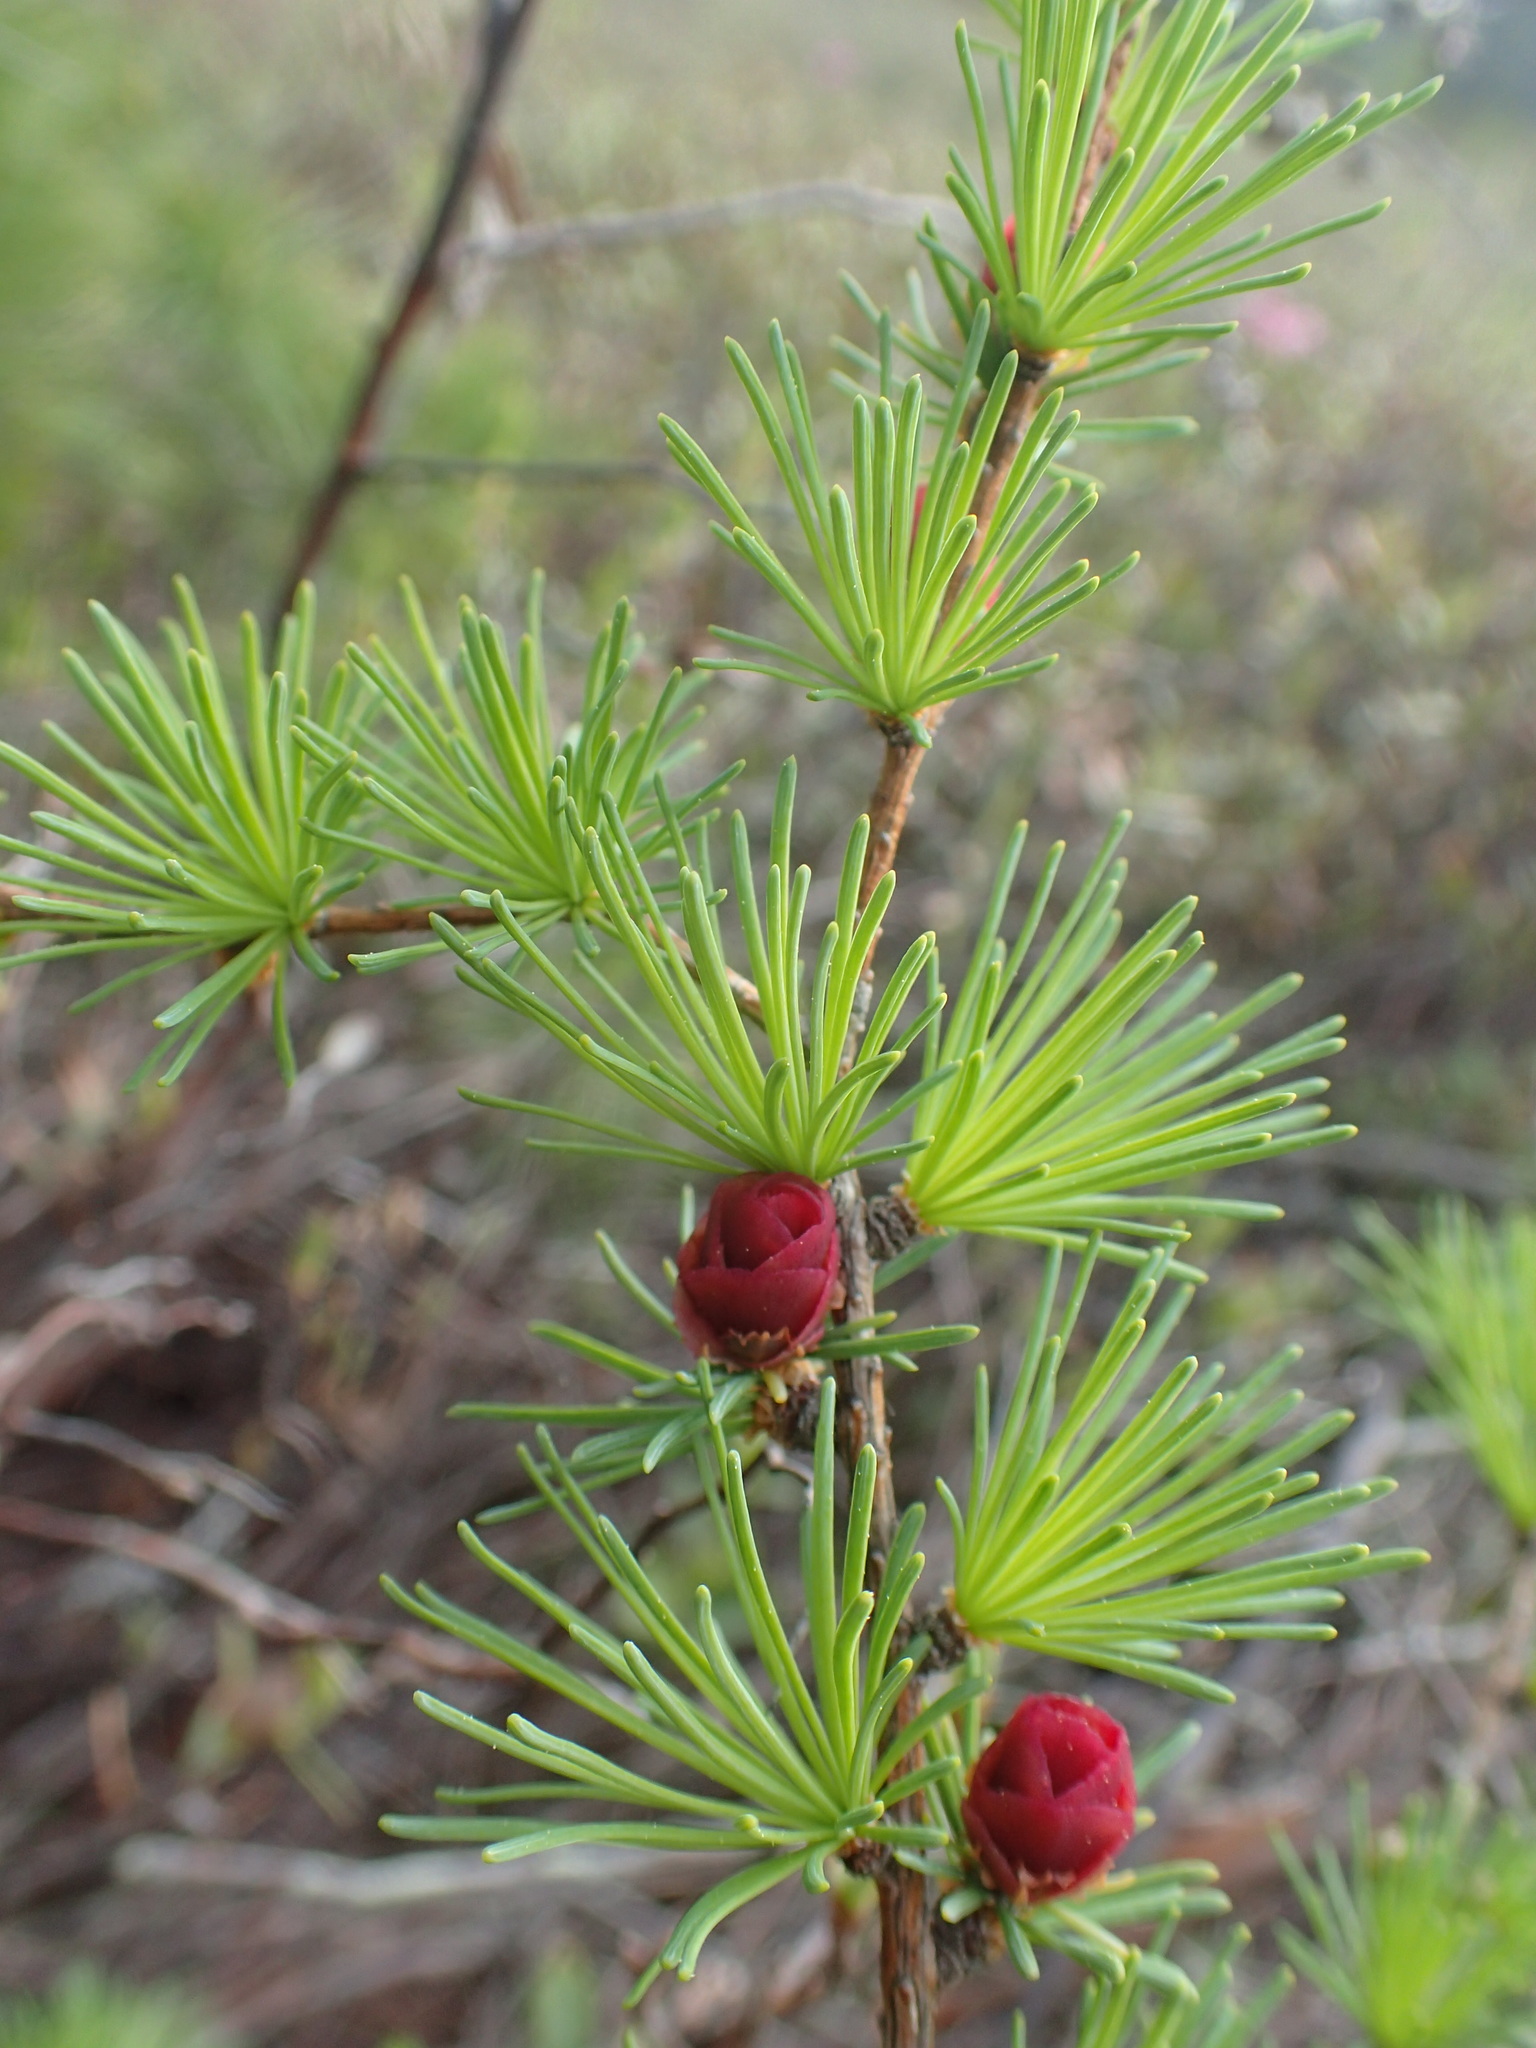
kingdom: Plantae
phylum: Tracheophyta
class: Pinopsida
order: Pinales
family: Pinaceae
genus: Larix
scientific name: Larix laricina
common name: American larch
